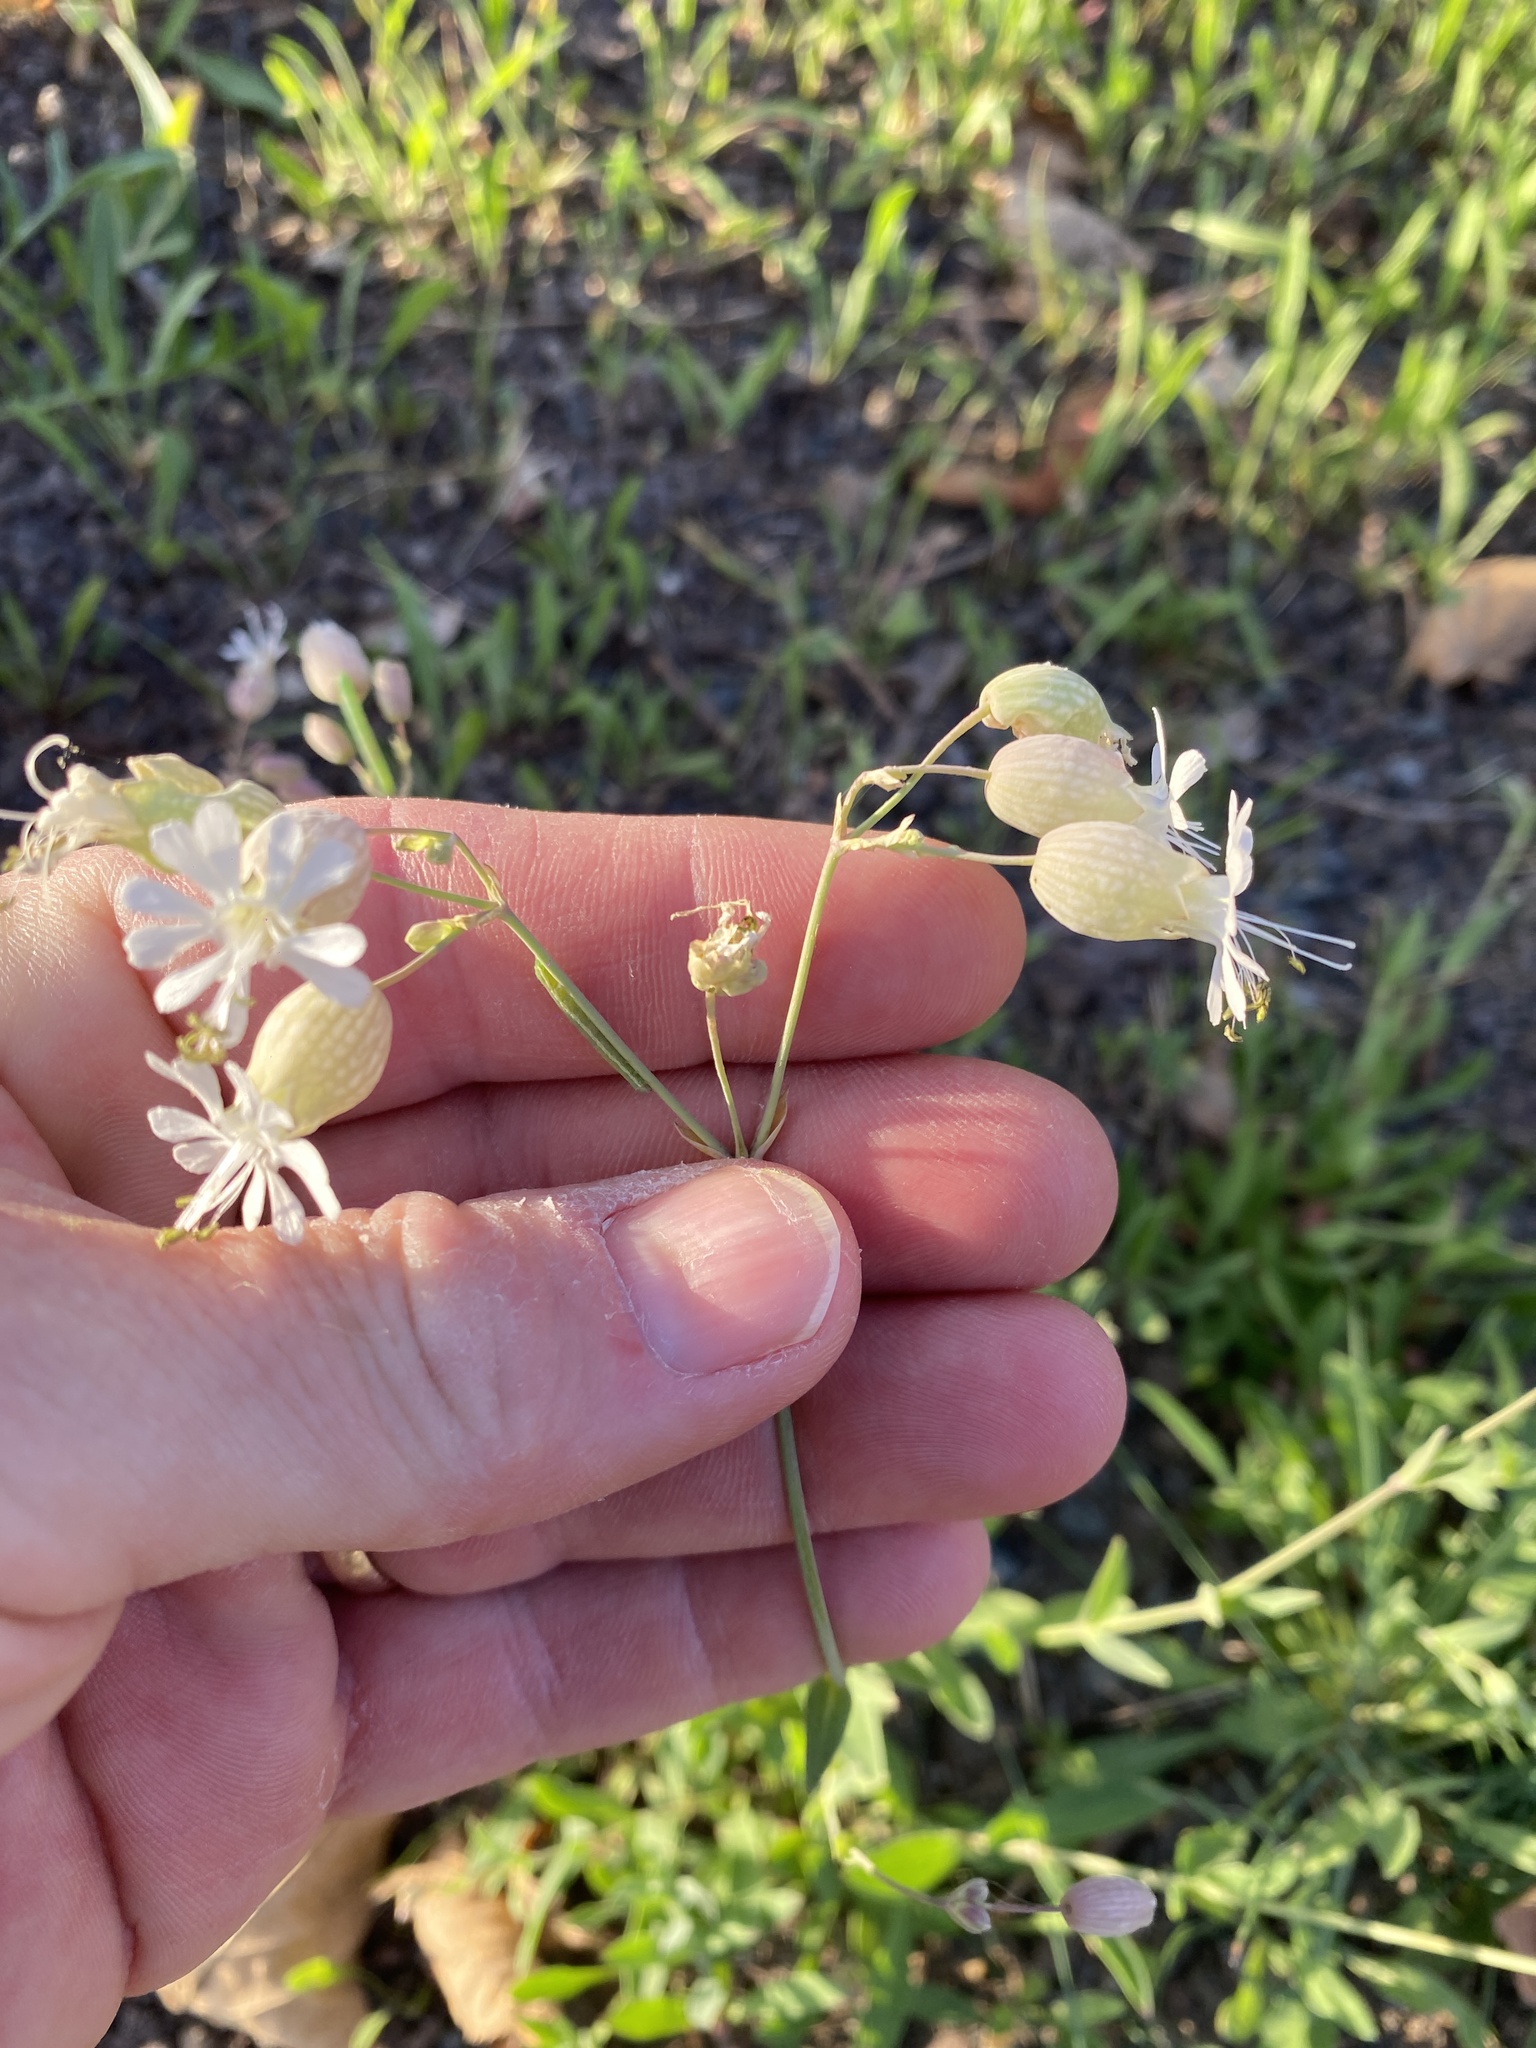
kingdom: Plantae
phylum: Tracheophyta
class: Magnoliopsida
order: Caryophyllales
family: Caryophyllaceae
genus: Silene
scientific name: Silene vulgaris
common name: Bladder campion
